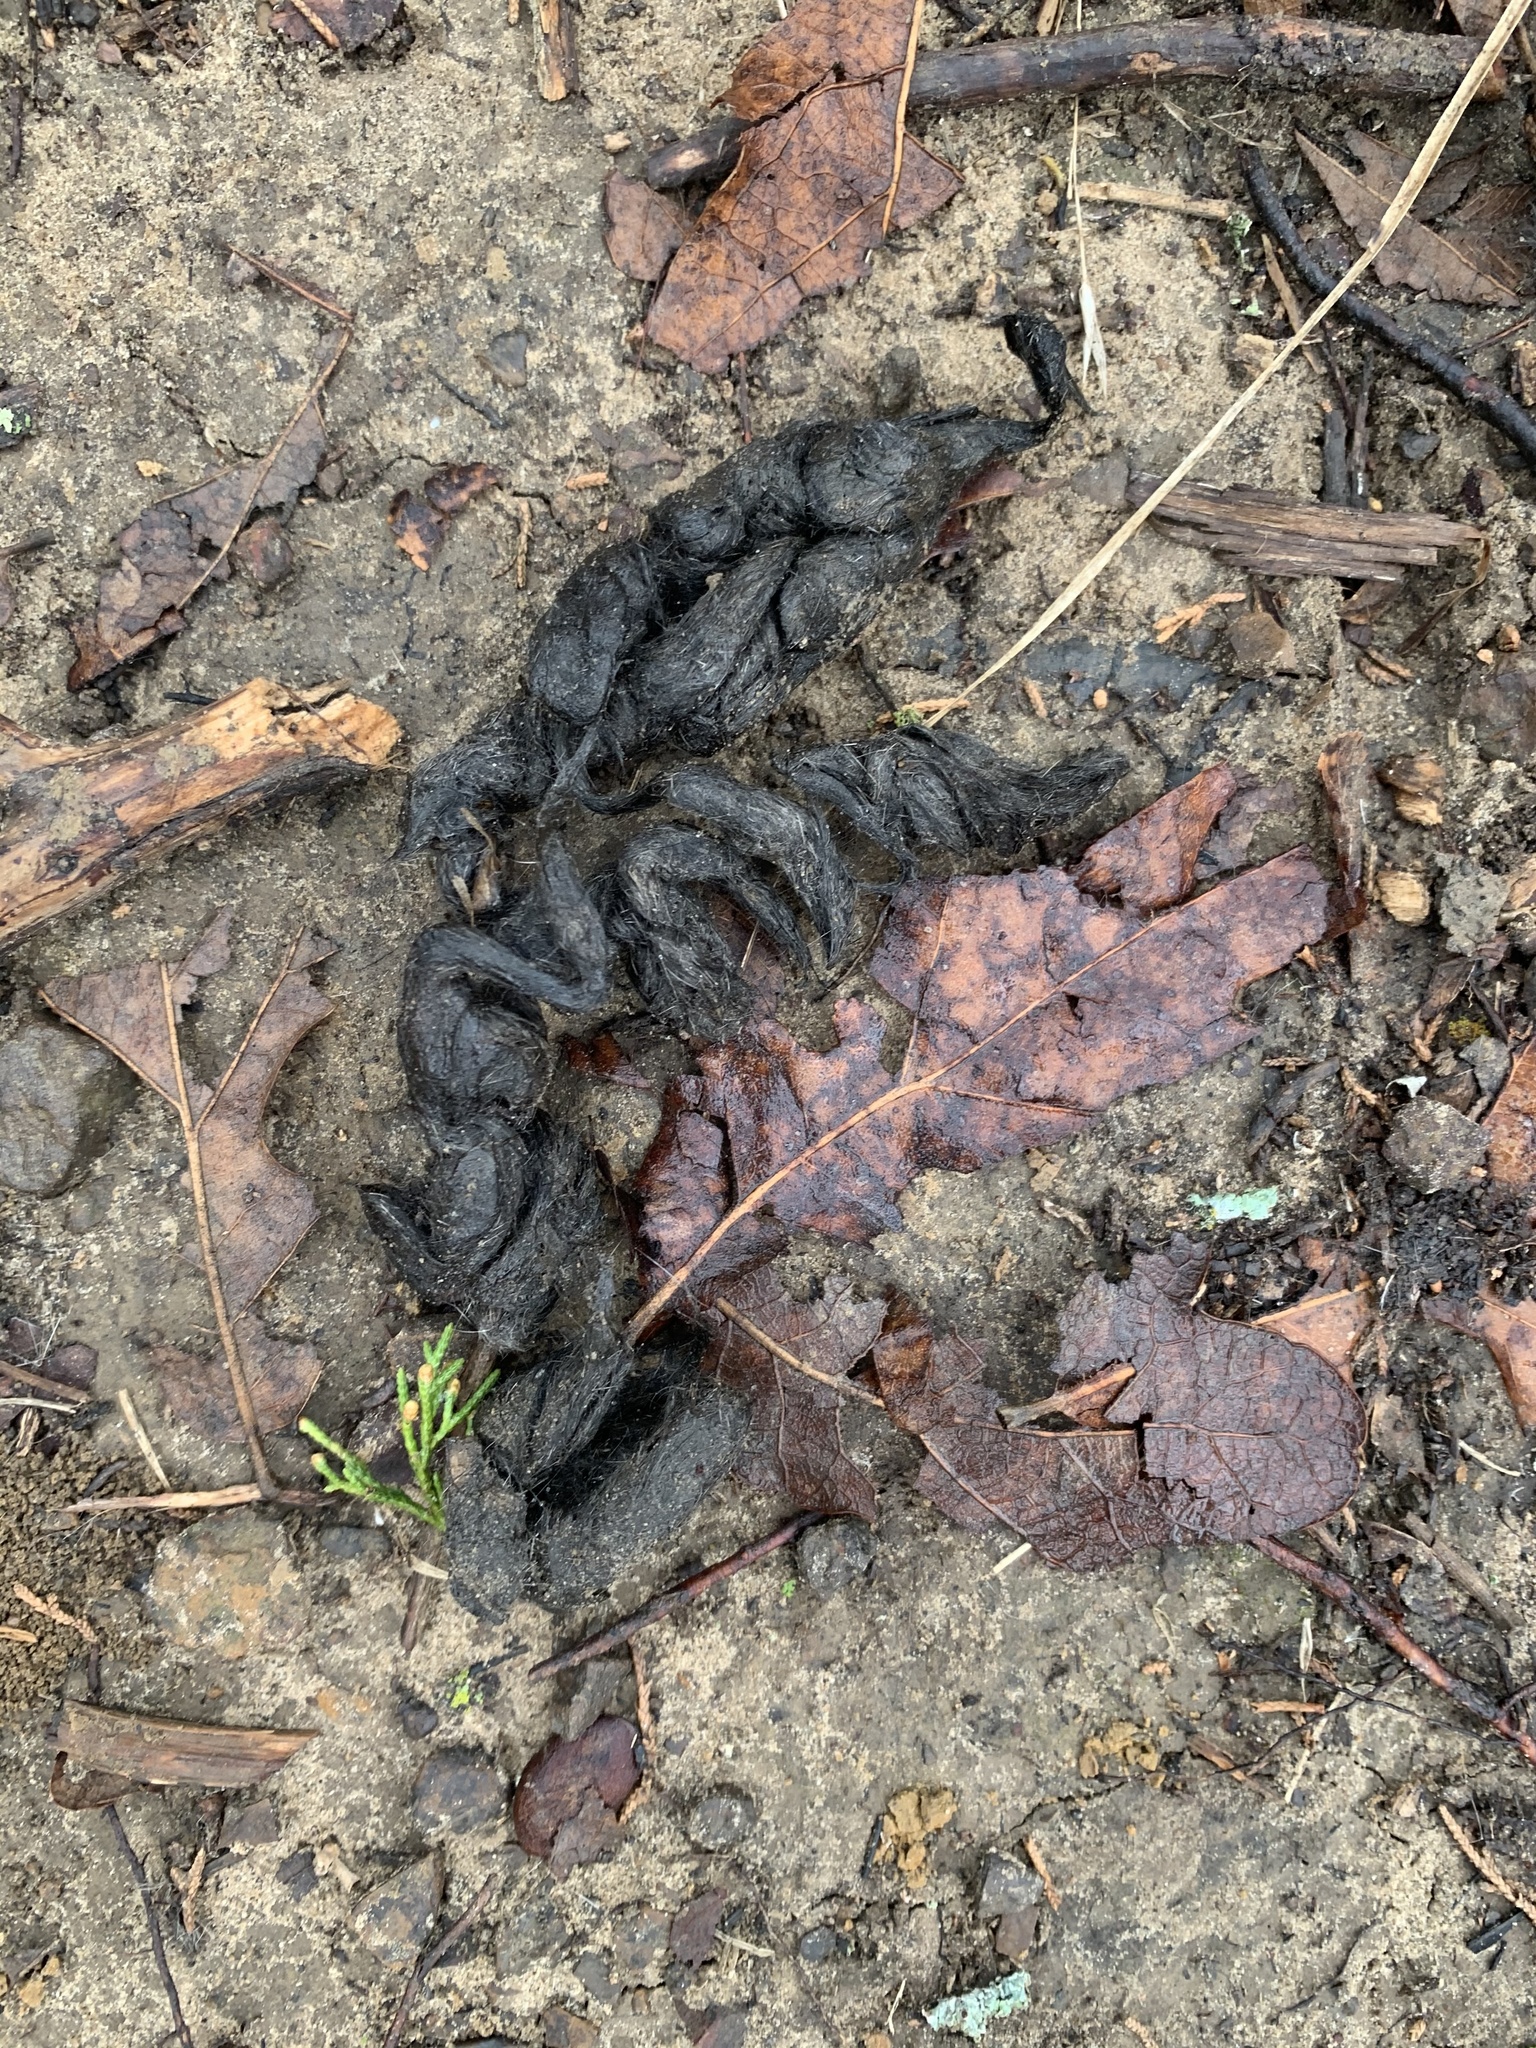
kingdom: Animalia
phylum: Chordata
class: Mammalia
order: Carnivora
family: Canidae
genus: Canis
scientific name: Canis latrans
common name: Coyote
